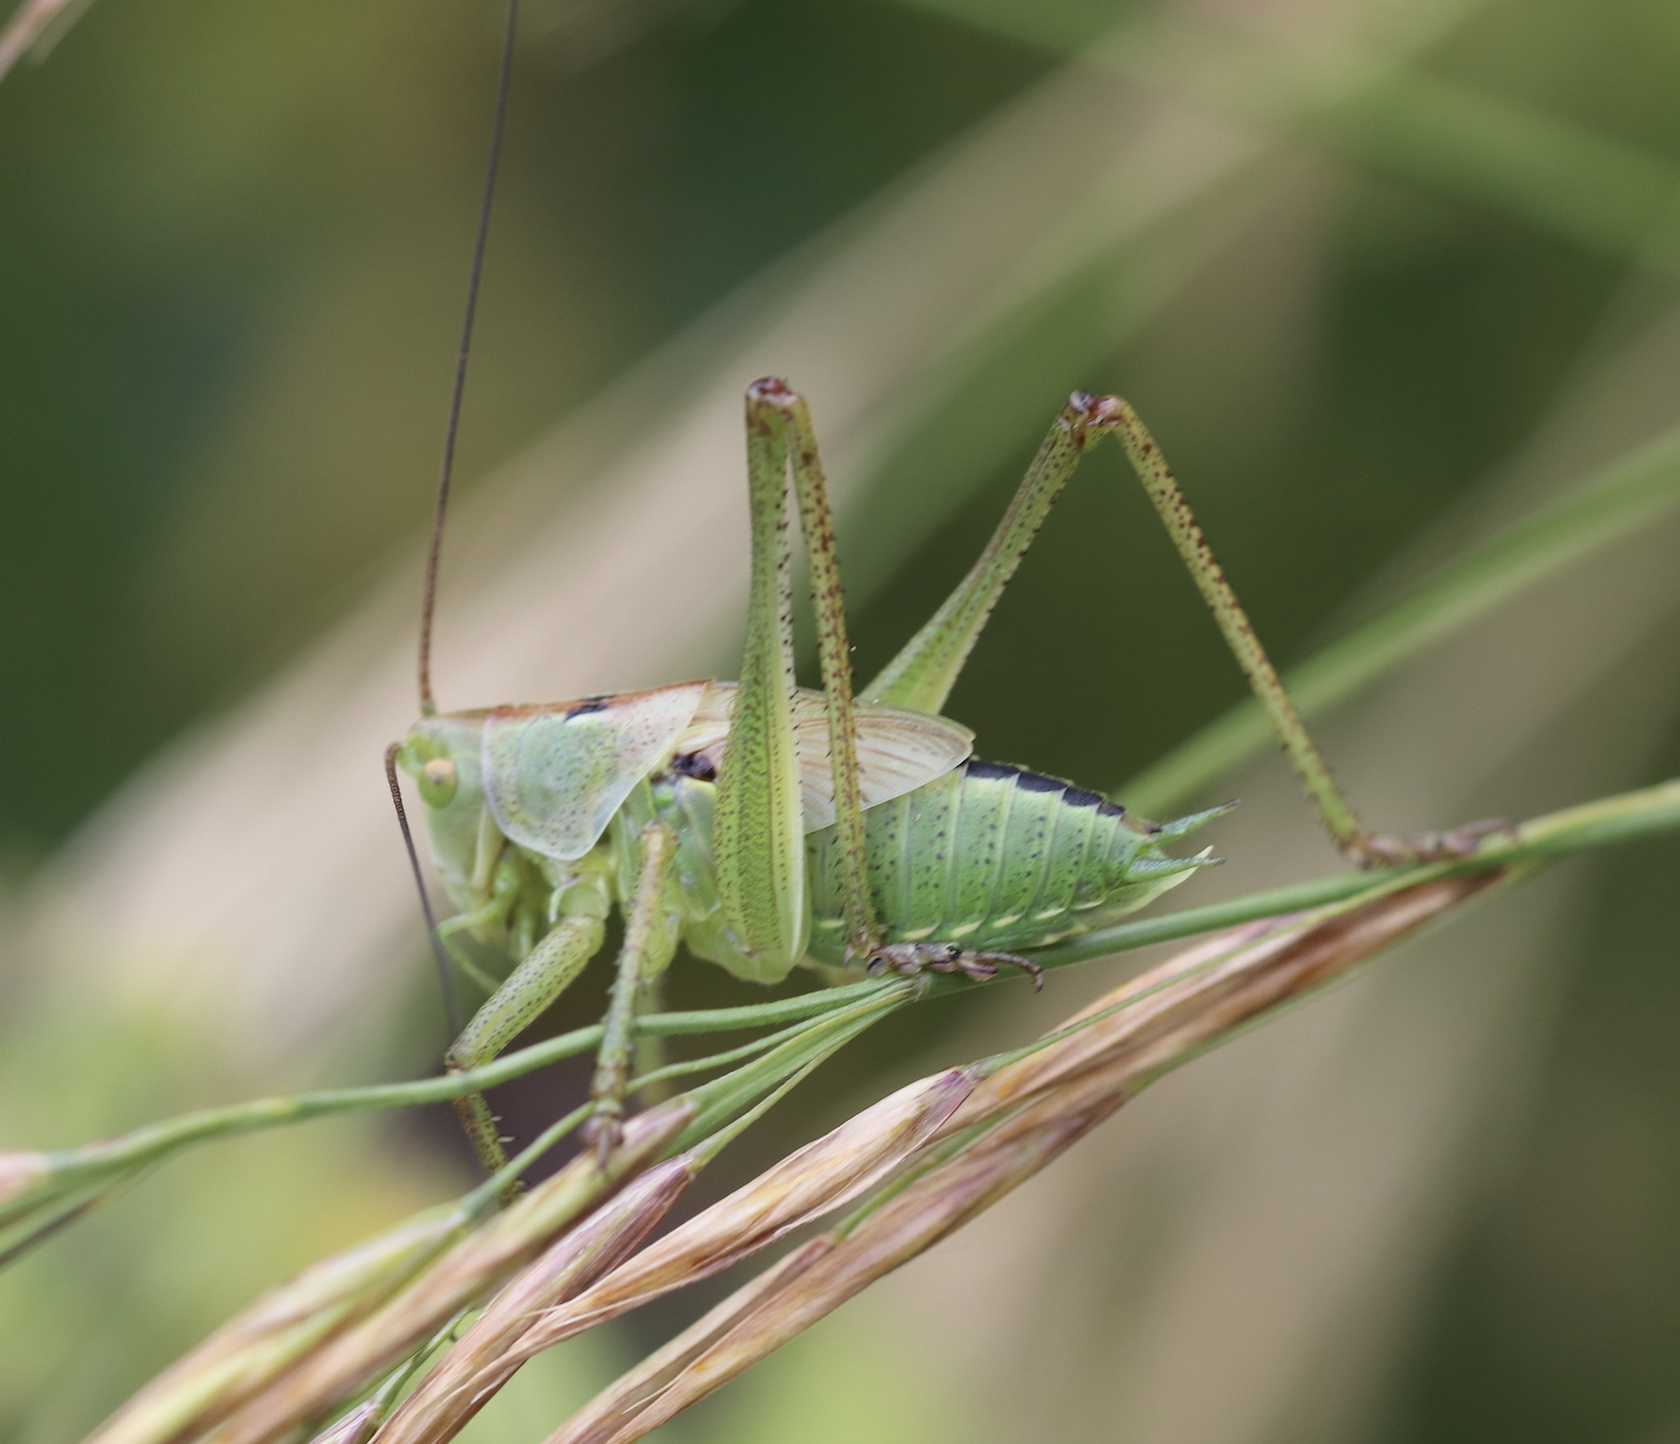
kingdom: Animalia
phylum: Arthropoda
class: Insecta
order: Orthoptera
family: Tettigoniidae
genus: Tettigonia
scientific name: Tettigonia viridissima
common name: Great green bush-cricket
